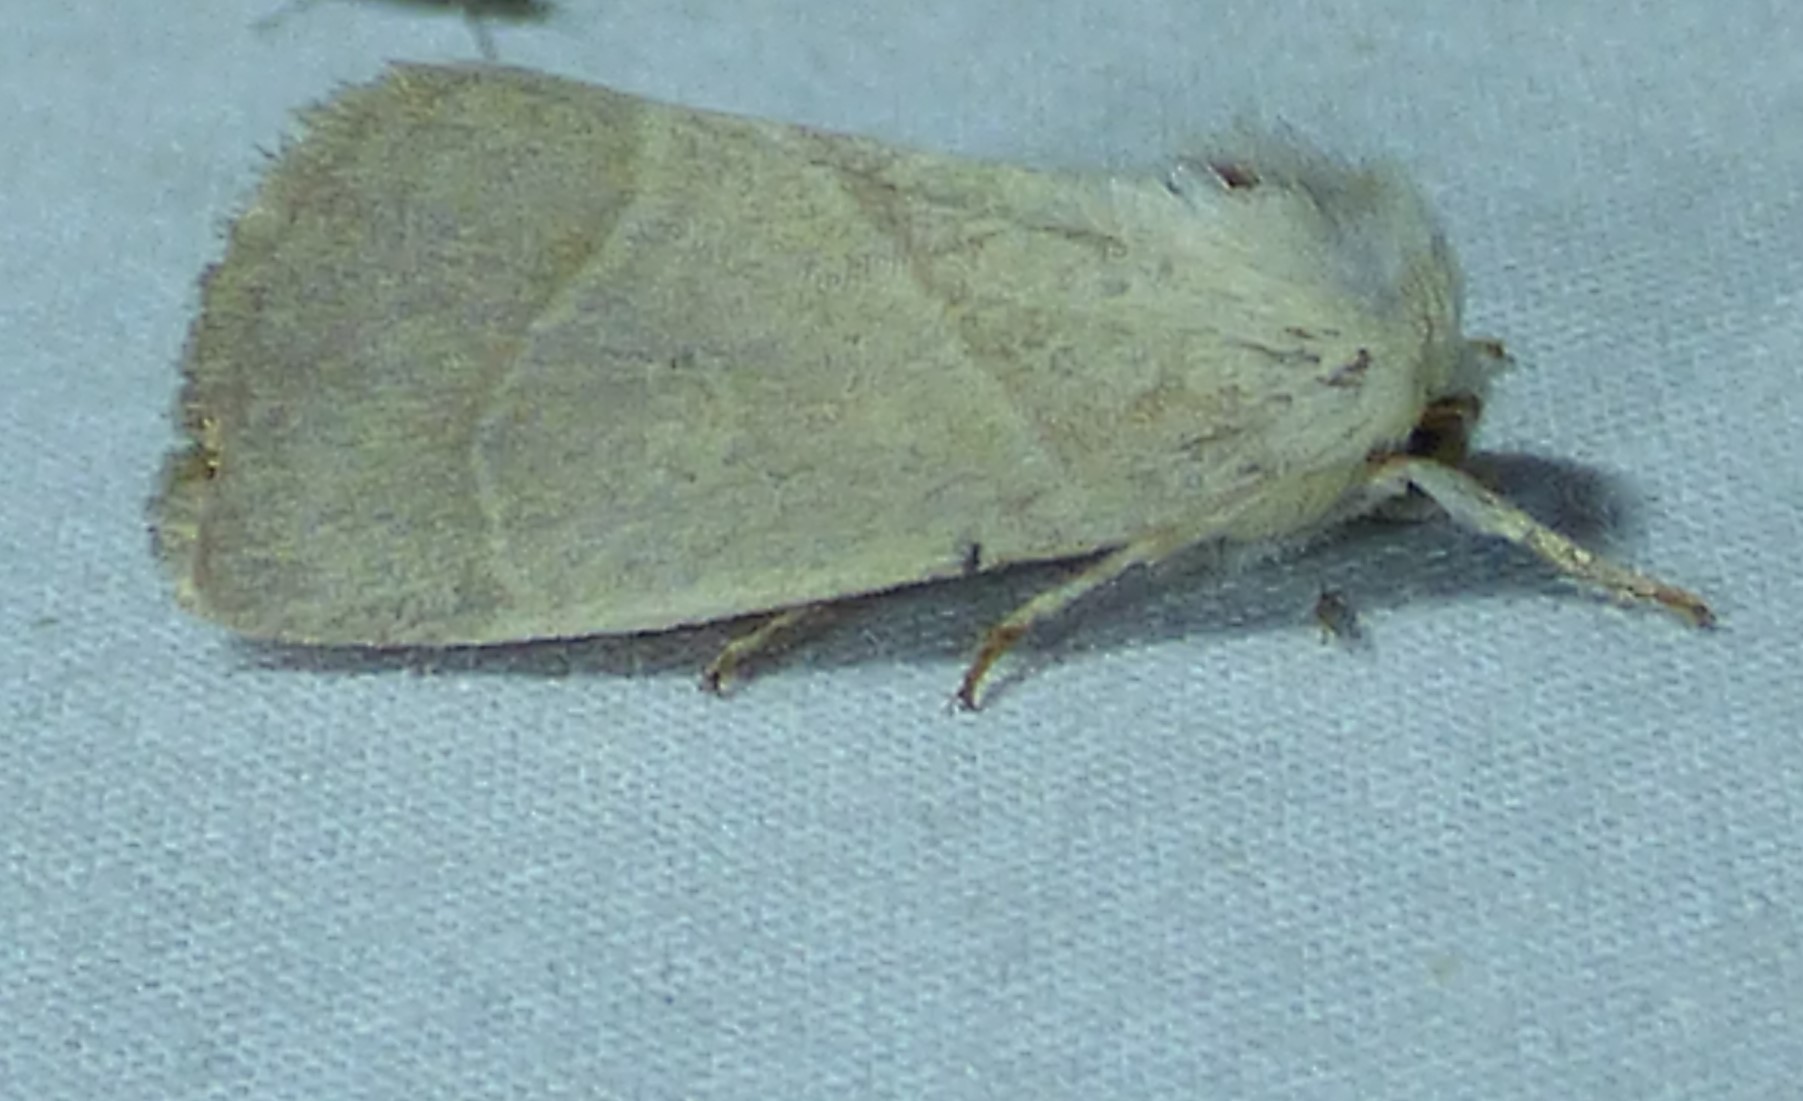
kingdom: Animalia
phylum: Arthropoda
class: Insecta
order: Lepidoptera
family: Noctuidae
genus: Cosmia
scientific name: Cosmia calami
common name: American dun-bar moth
